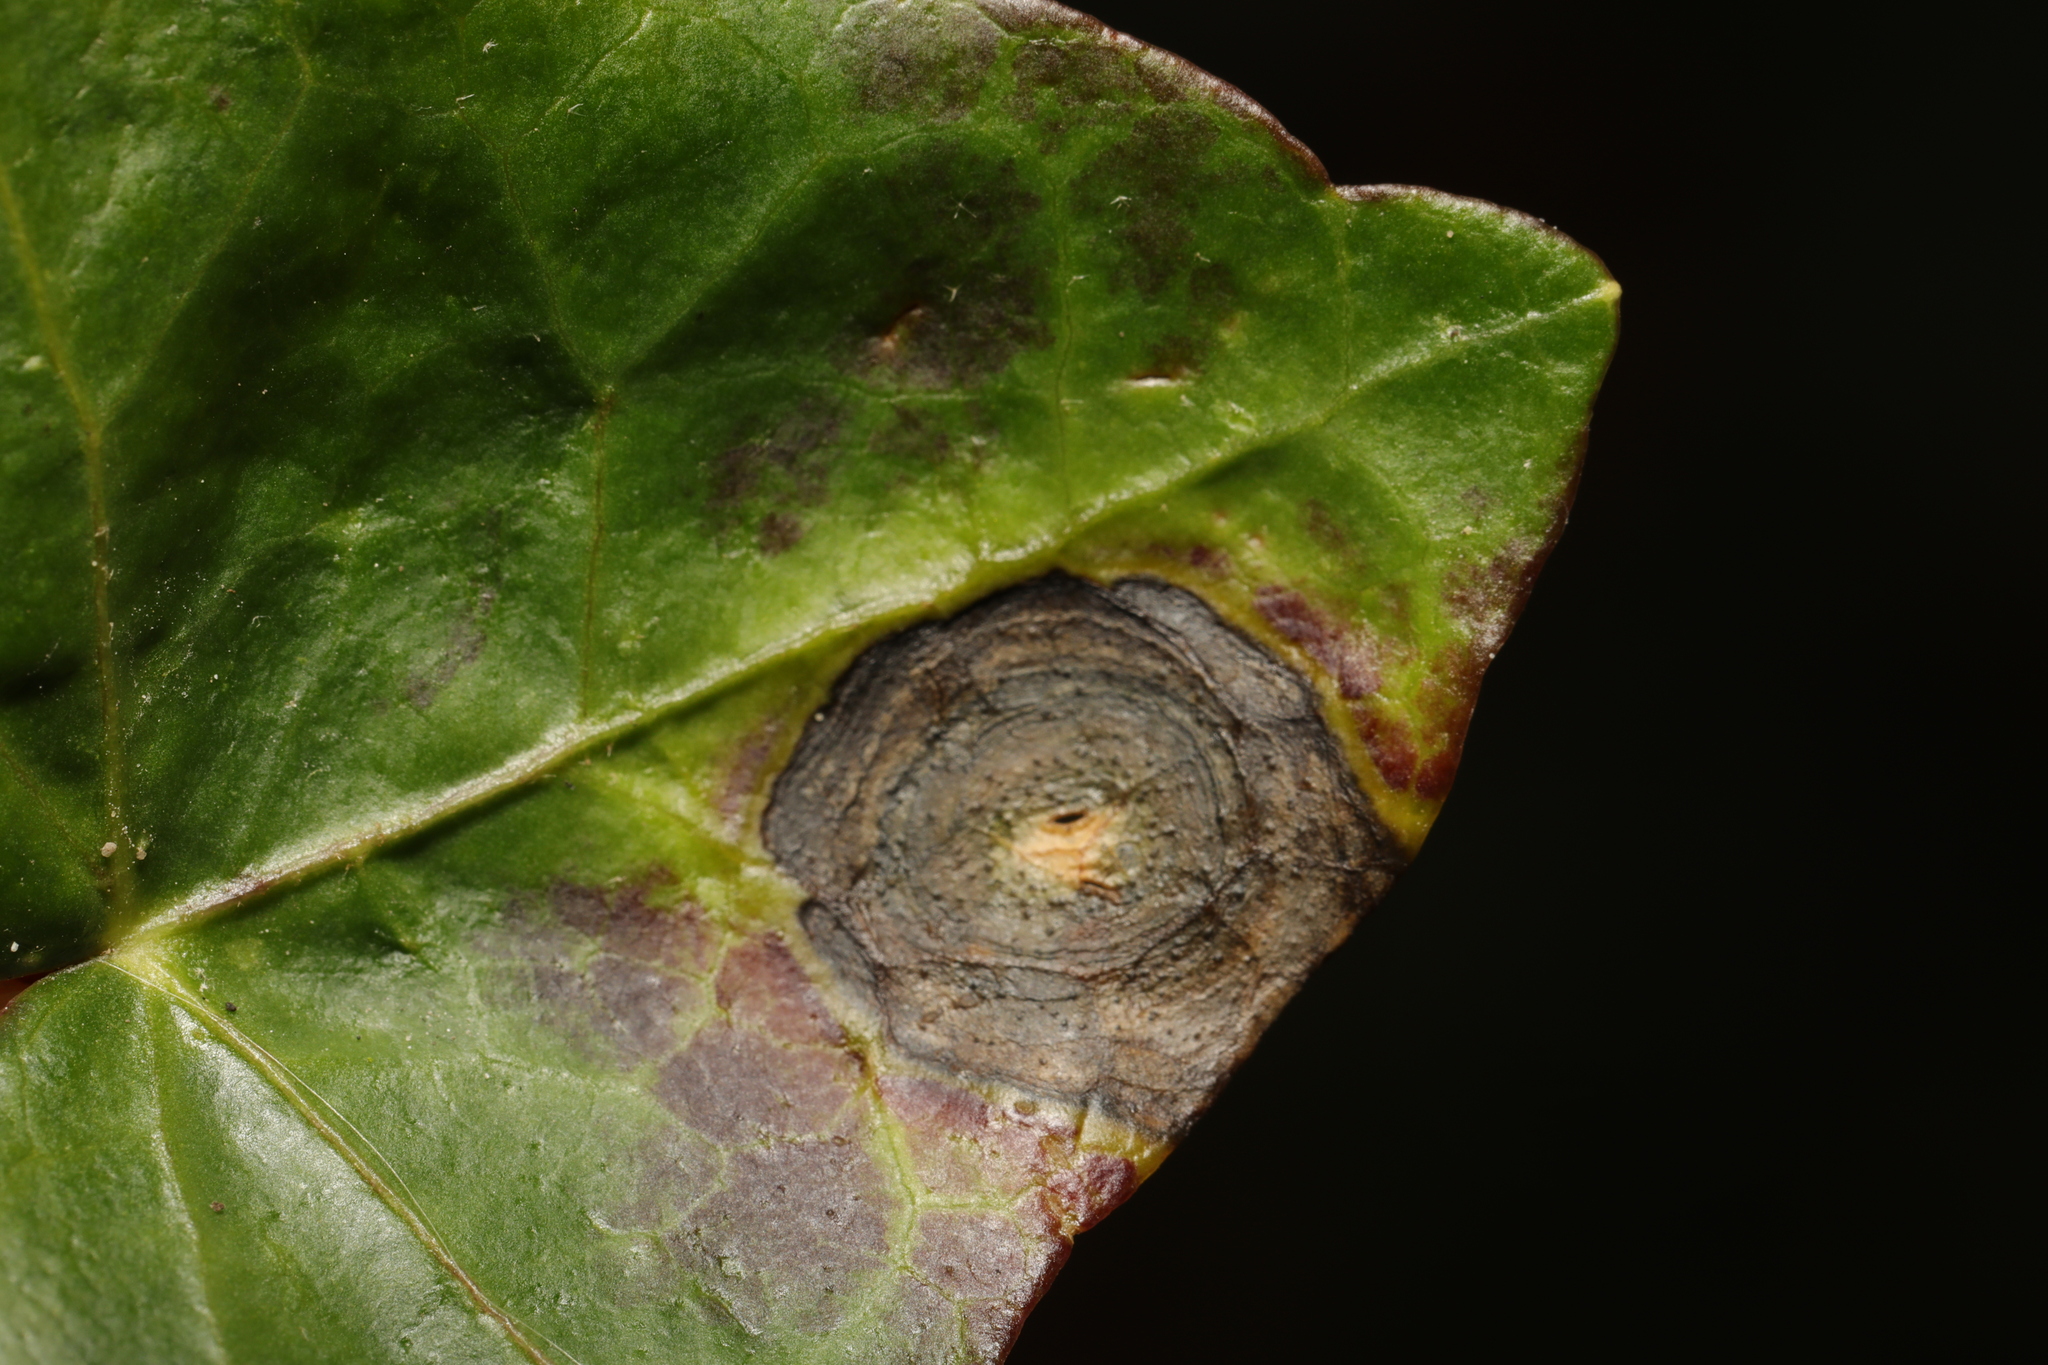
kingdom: Fungi
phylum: Ascomycota
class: Dothideomycetes
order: Pleosporales
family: Didymellaceae
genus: Boeremia
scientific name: Boeremia hedericola
